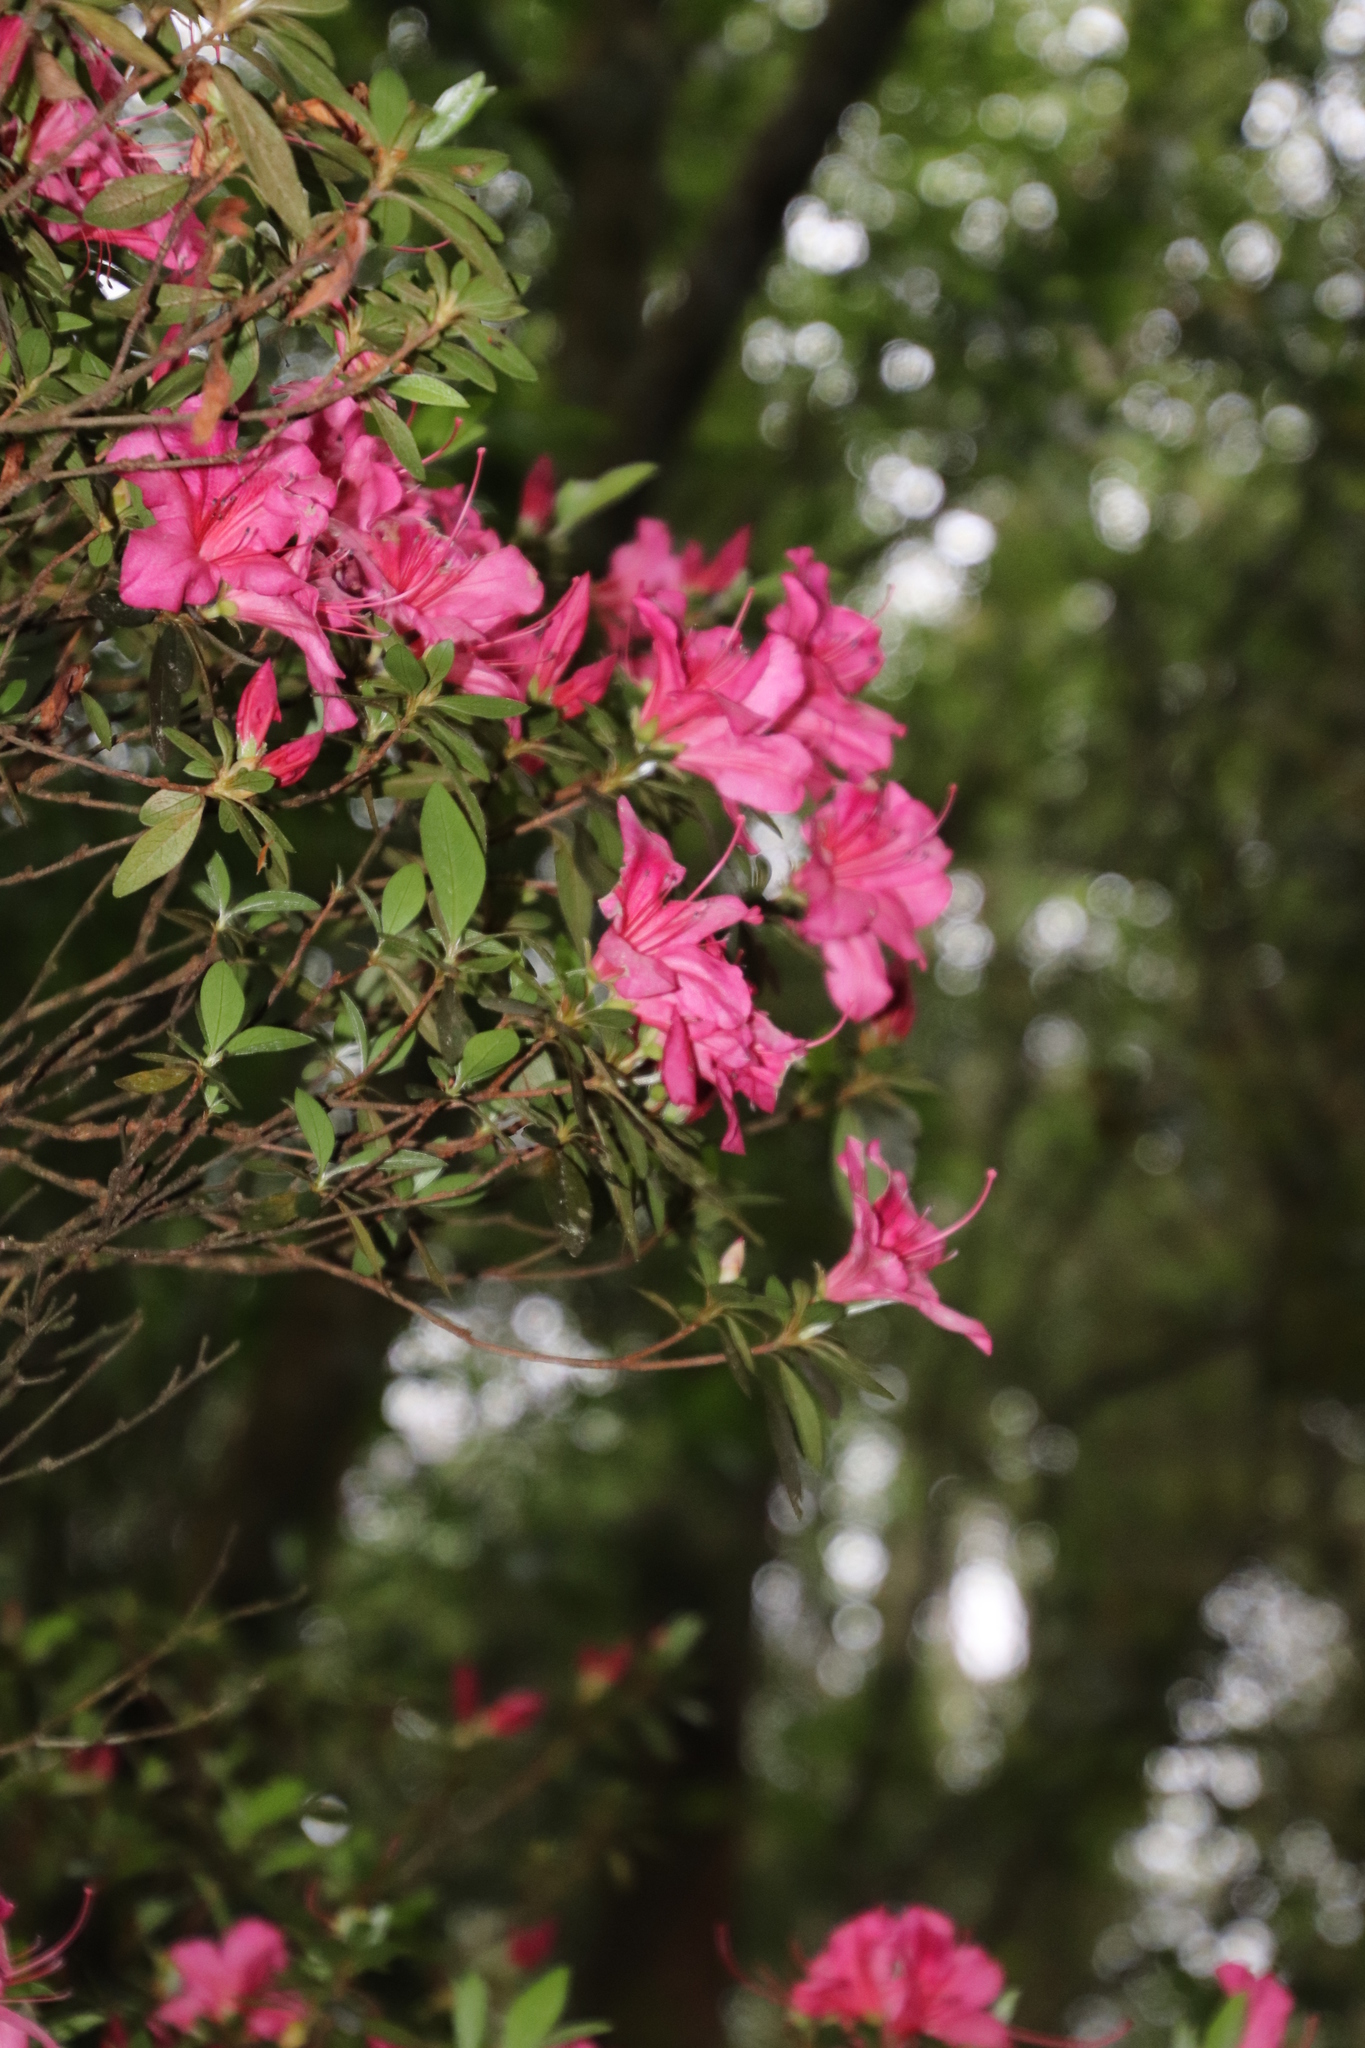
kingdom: Plantae
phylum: Tracheophyta
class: Magnoliopsida
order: Ericales
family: Ericaceae
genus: Rhododendron
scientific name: Rhododendron hybridum
